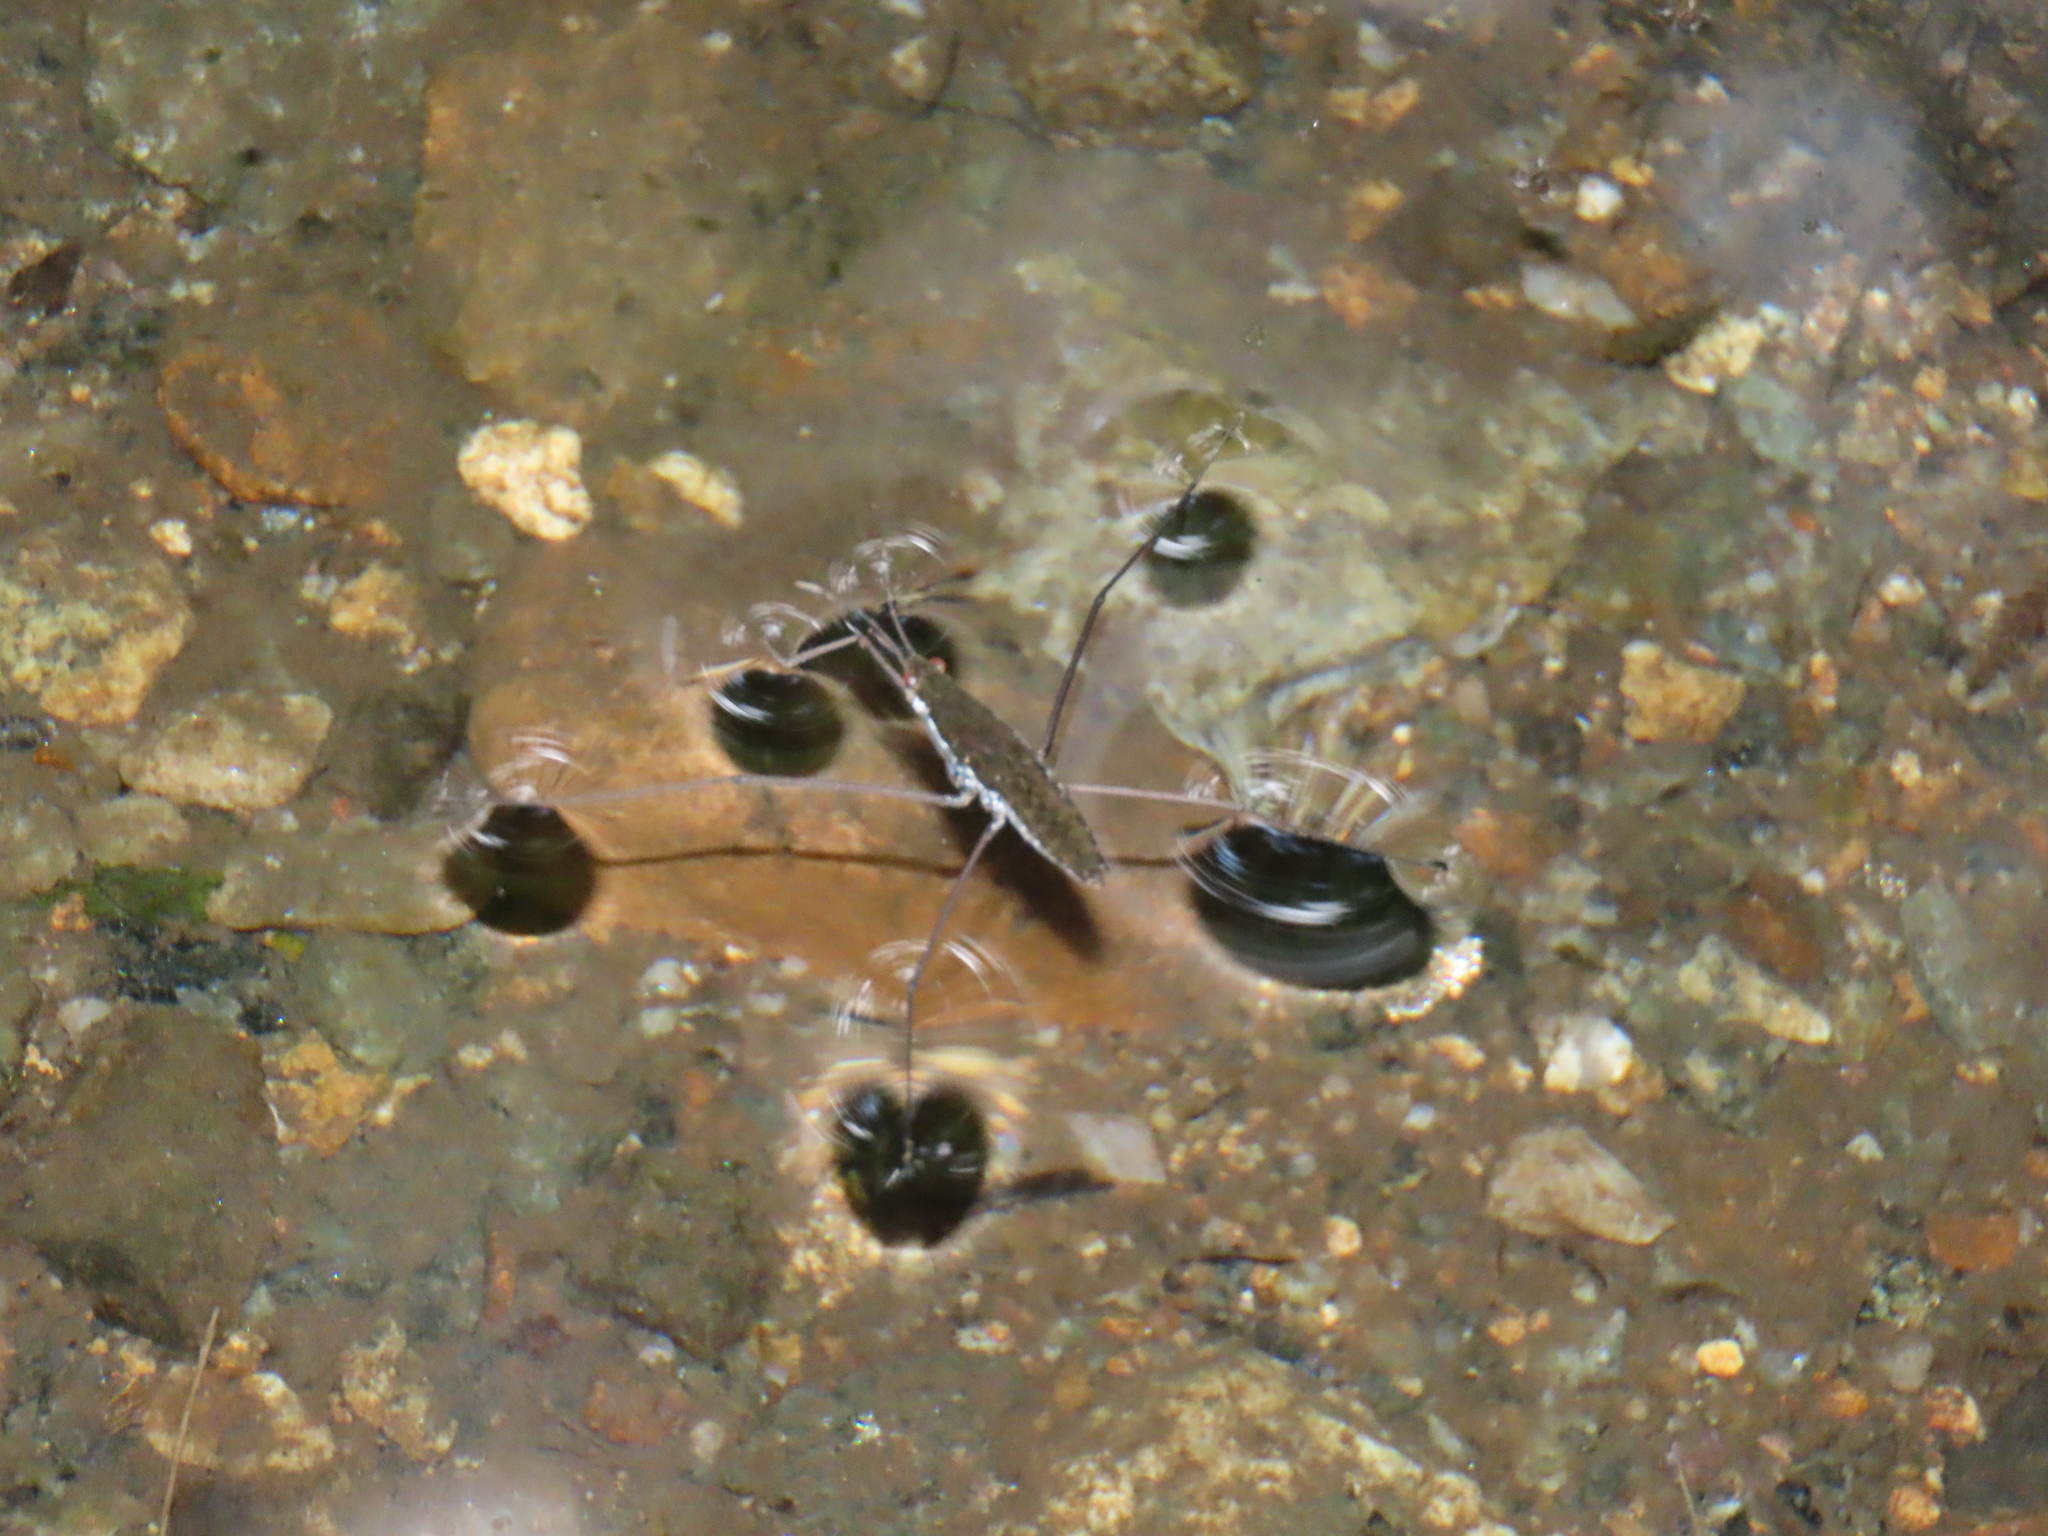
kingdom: Animalia
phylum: Arthropoda
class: Insecta
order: Hemiptera
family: Gerridae
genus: Aquarius
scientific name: Aquarius remigis
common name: Common water strider
